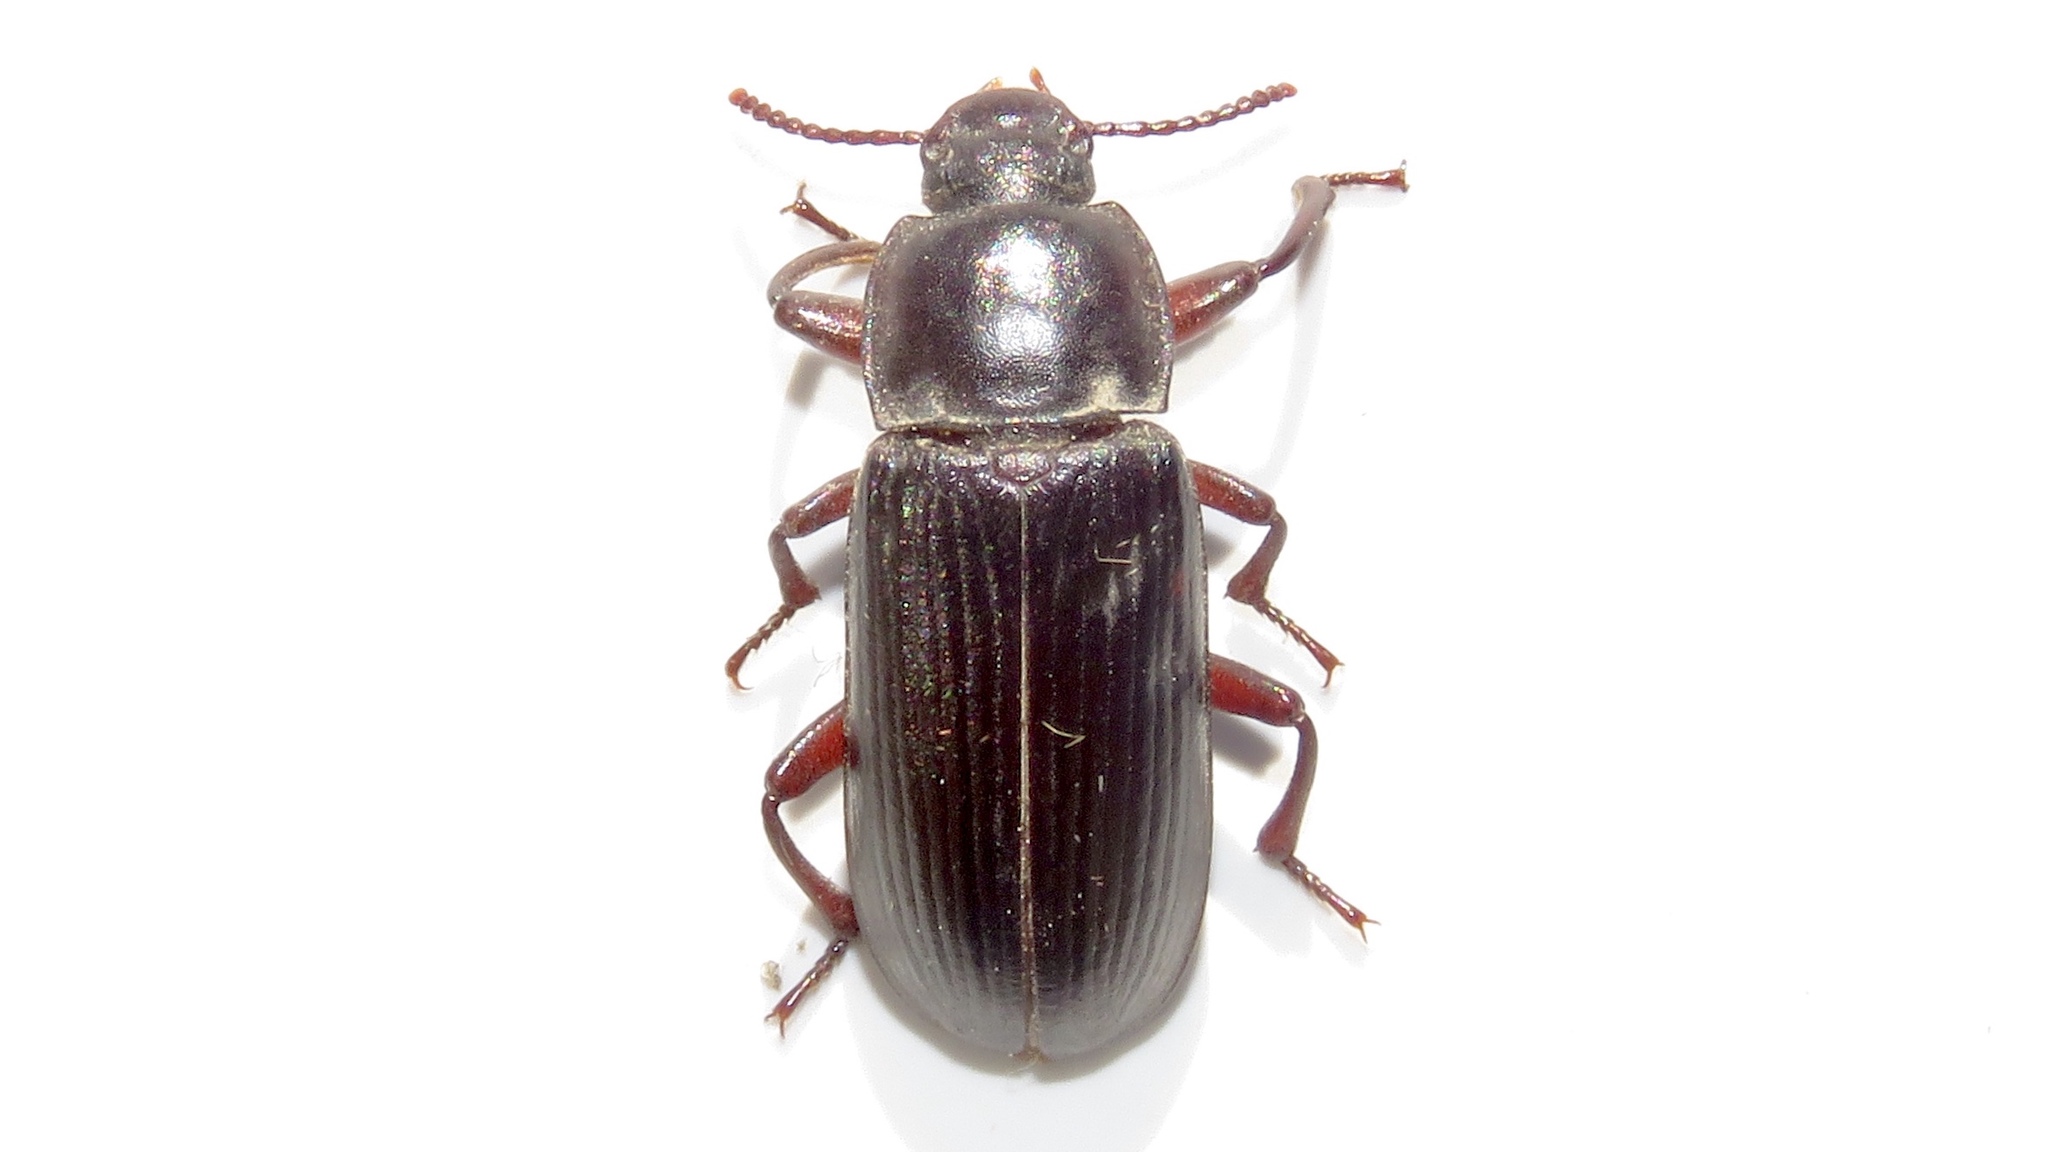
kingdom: Animalia
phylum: Arthropoda
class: Insecta
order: Coleoptera
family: Tenebrionidae
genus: Tenebrio
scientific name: Tenebrio molitor
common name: Hardback beetle
